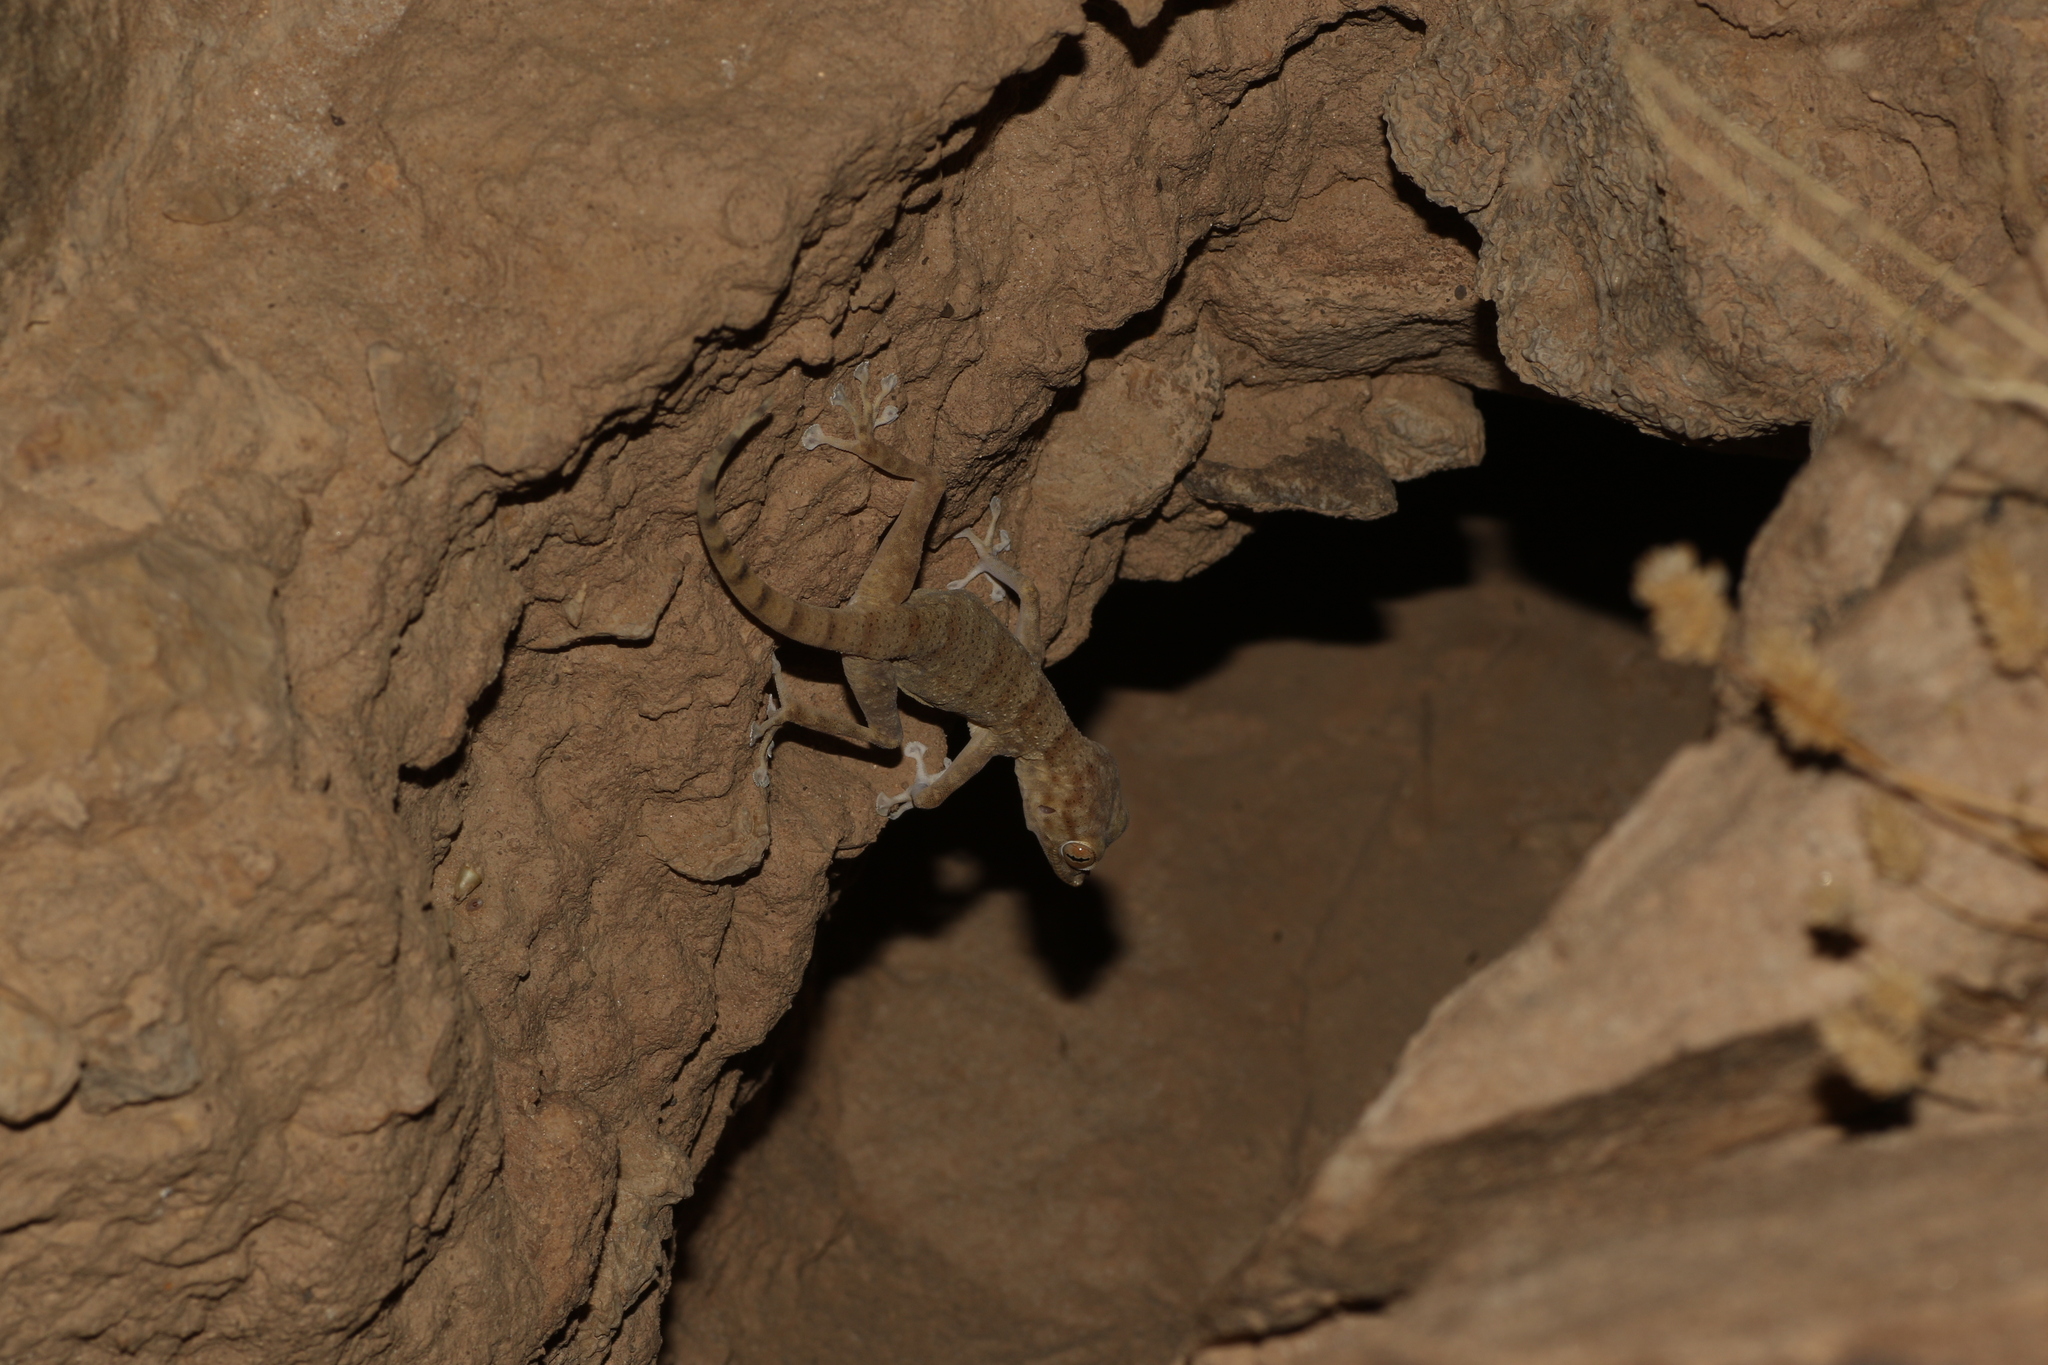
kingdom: Animalia
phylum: Chordata
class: Squamata
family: Phyllodactylidae
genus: Ptyodactylus
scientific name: Ptyodactylus hasselquistii
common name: Hasselquist’s fan-footed gecko
